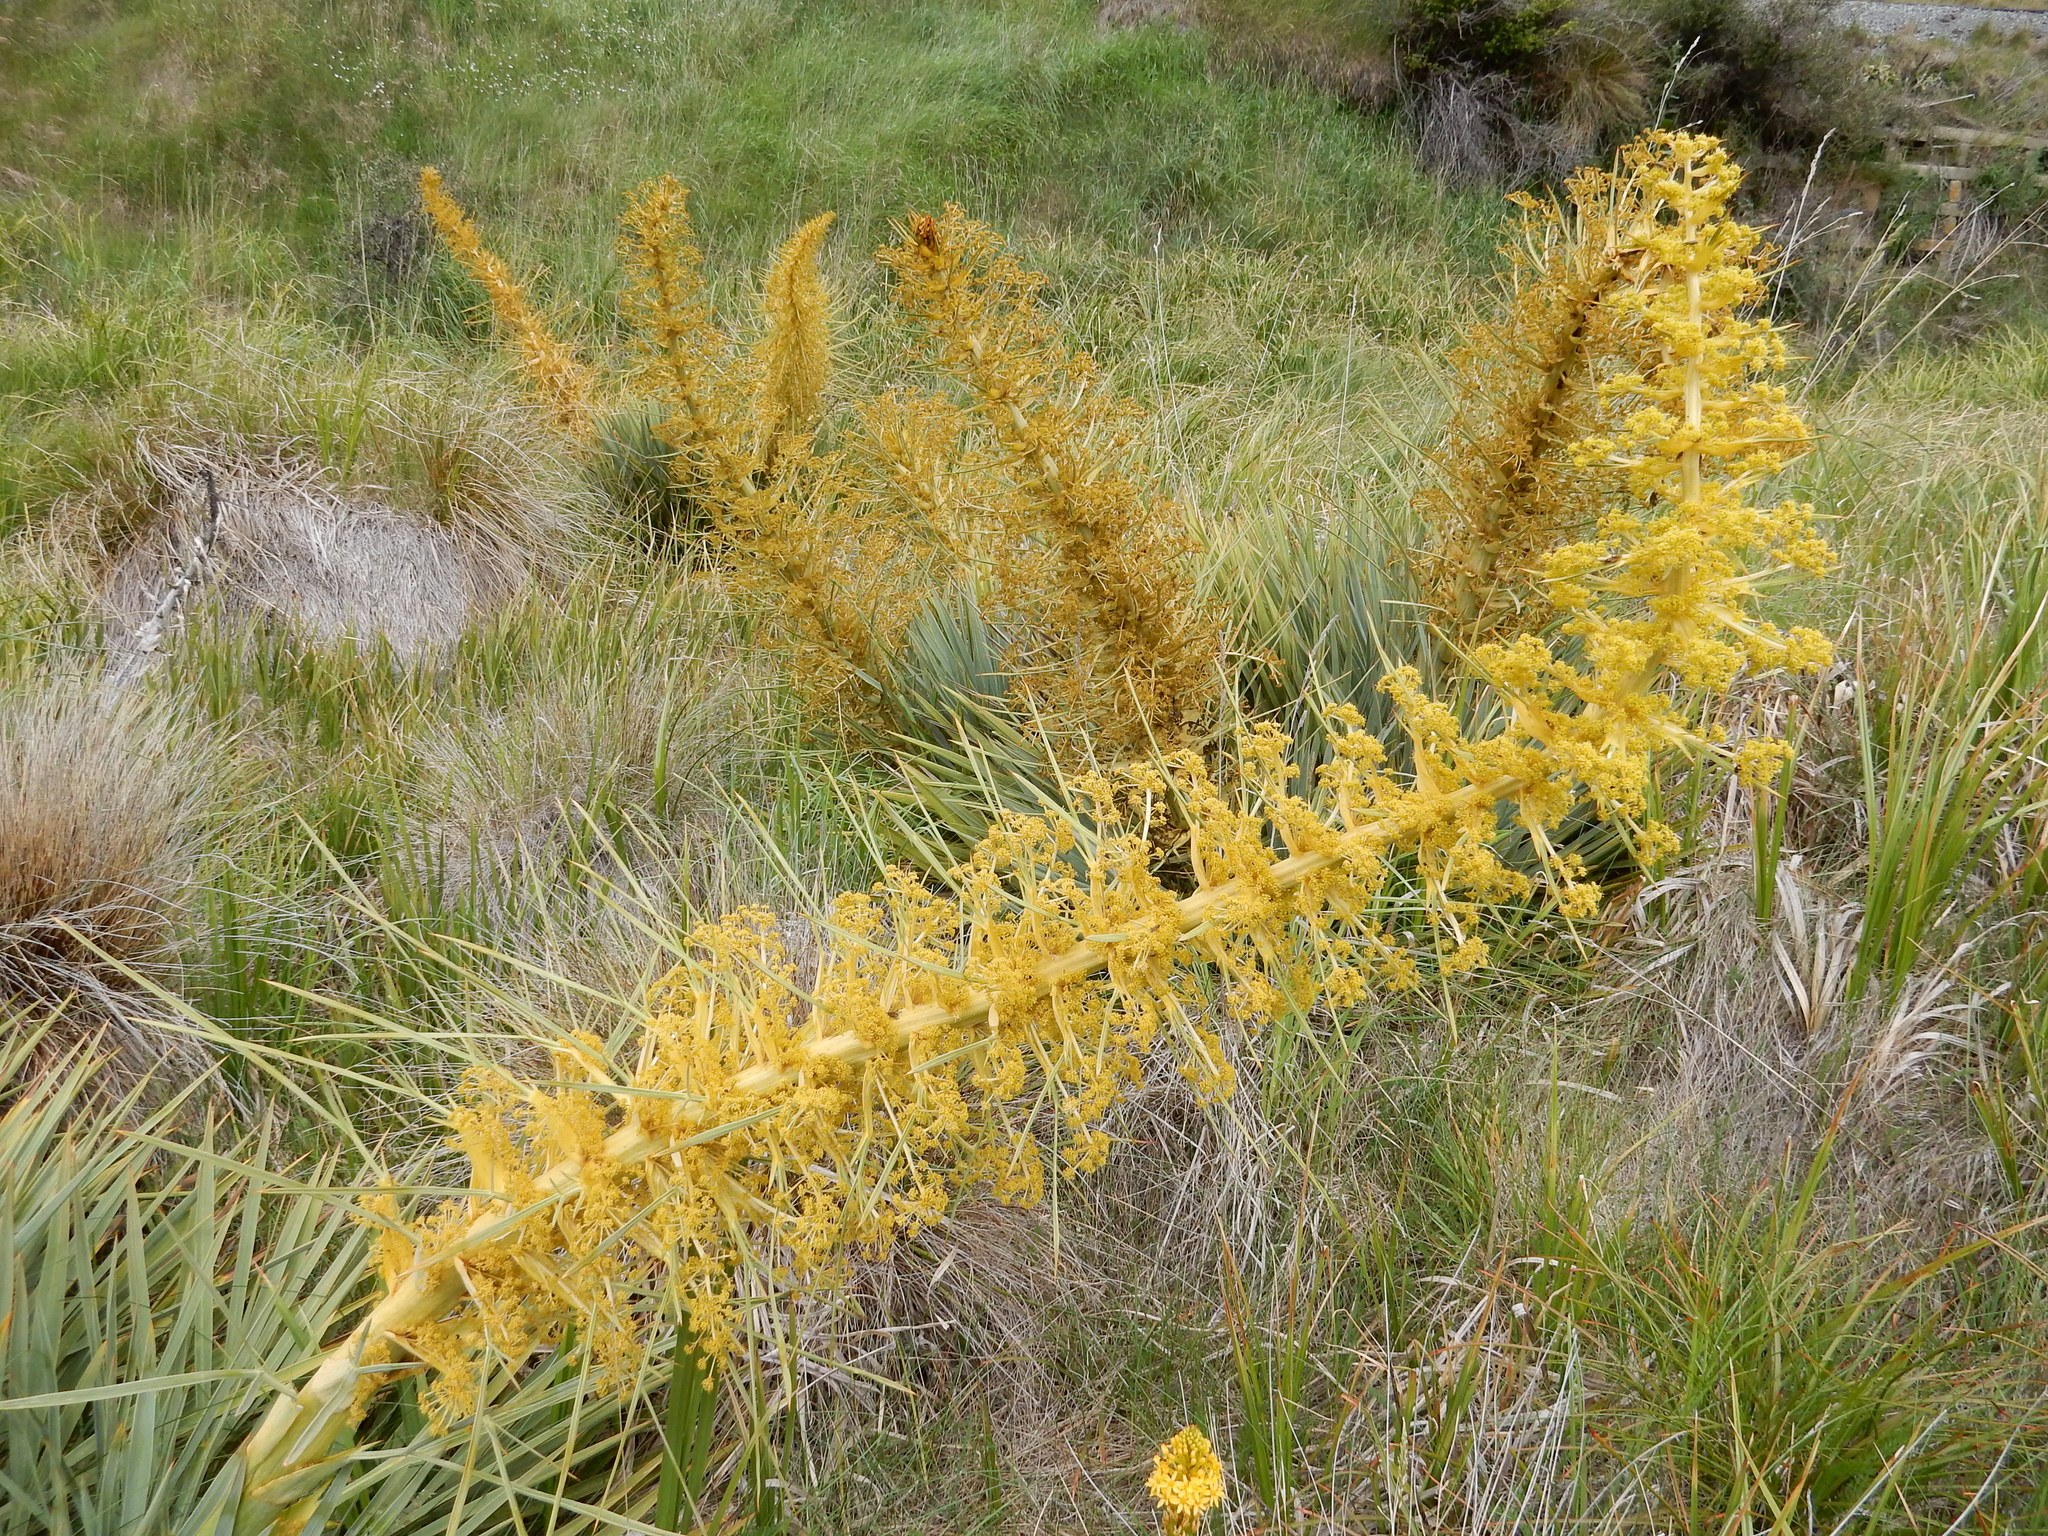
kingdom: Plantae
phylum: Tracheophyta
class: Magnoliopsida
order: Apiales
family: Apiaceae
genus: Aciphylla
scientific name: Aciphylla scott-thomsonii
